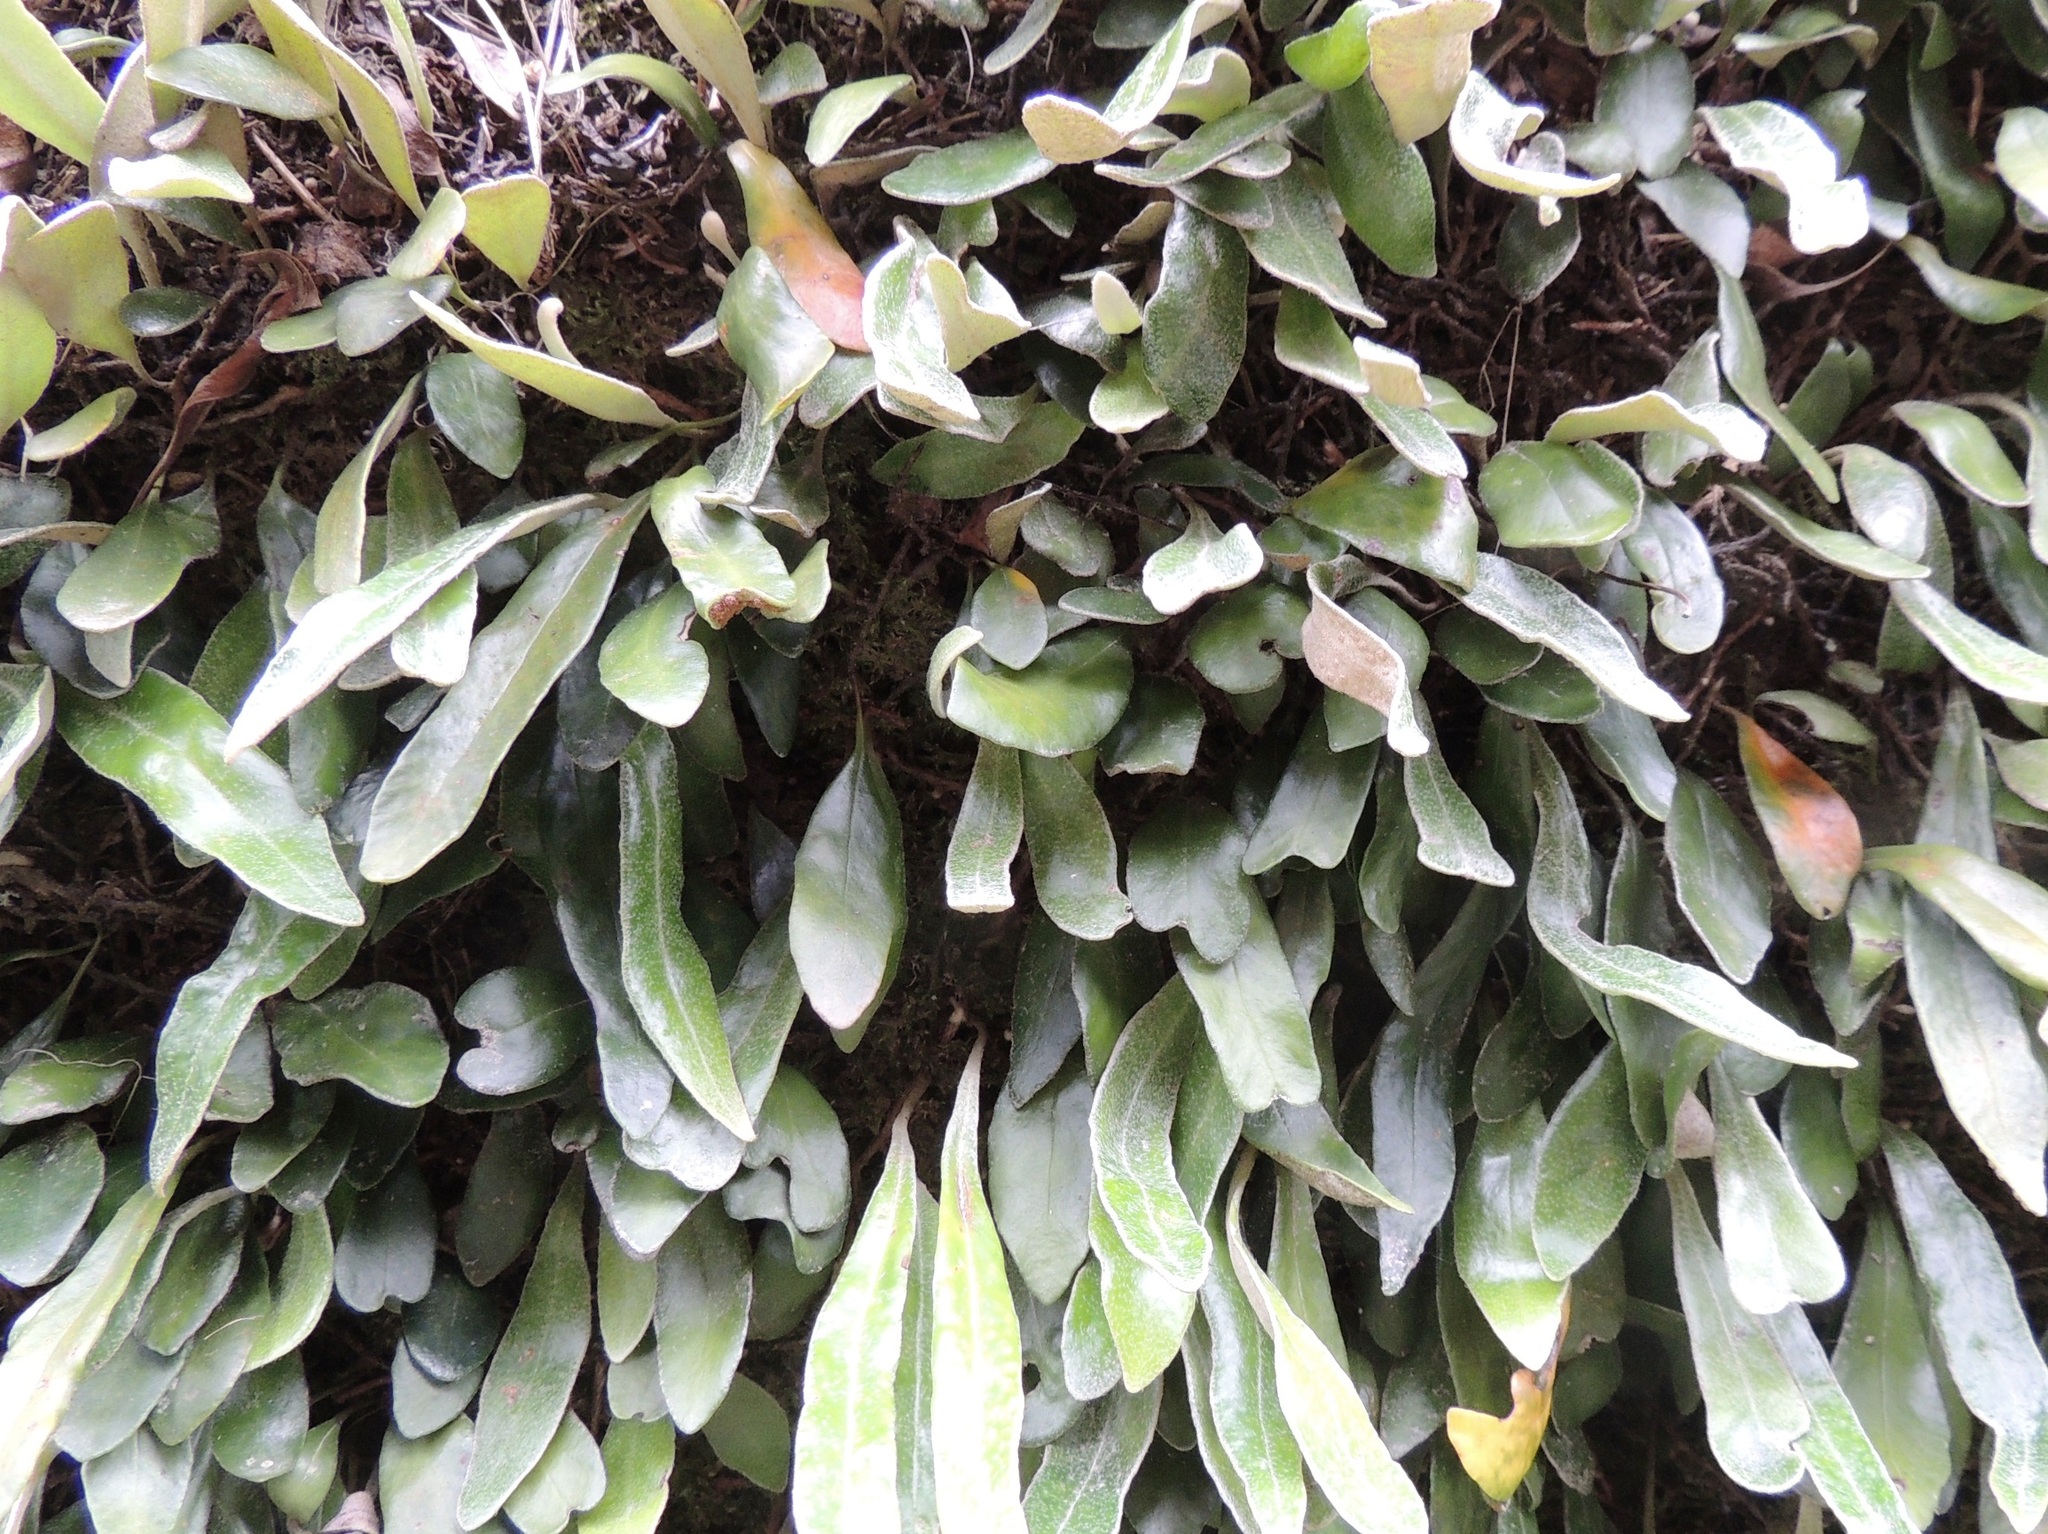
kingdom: Plantae
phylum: Tracheophyta
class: Polypodiopsida
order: Polypodiales
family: Polypodiaceae
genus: Pyrrosia
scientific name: Pyrrosia eleagnifolia
